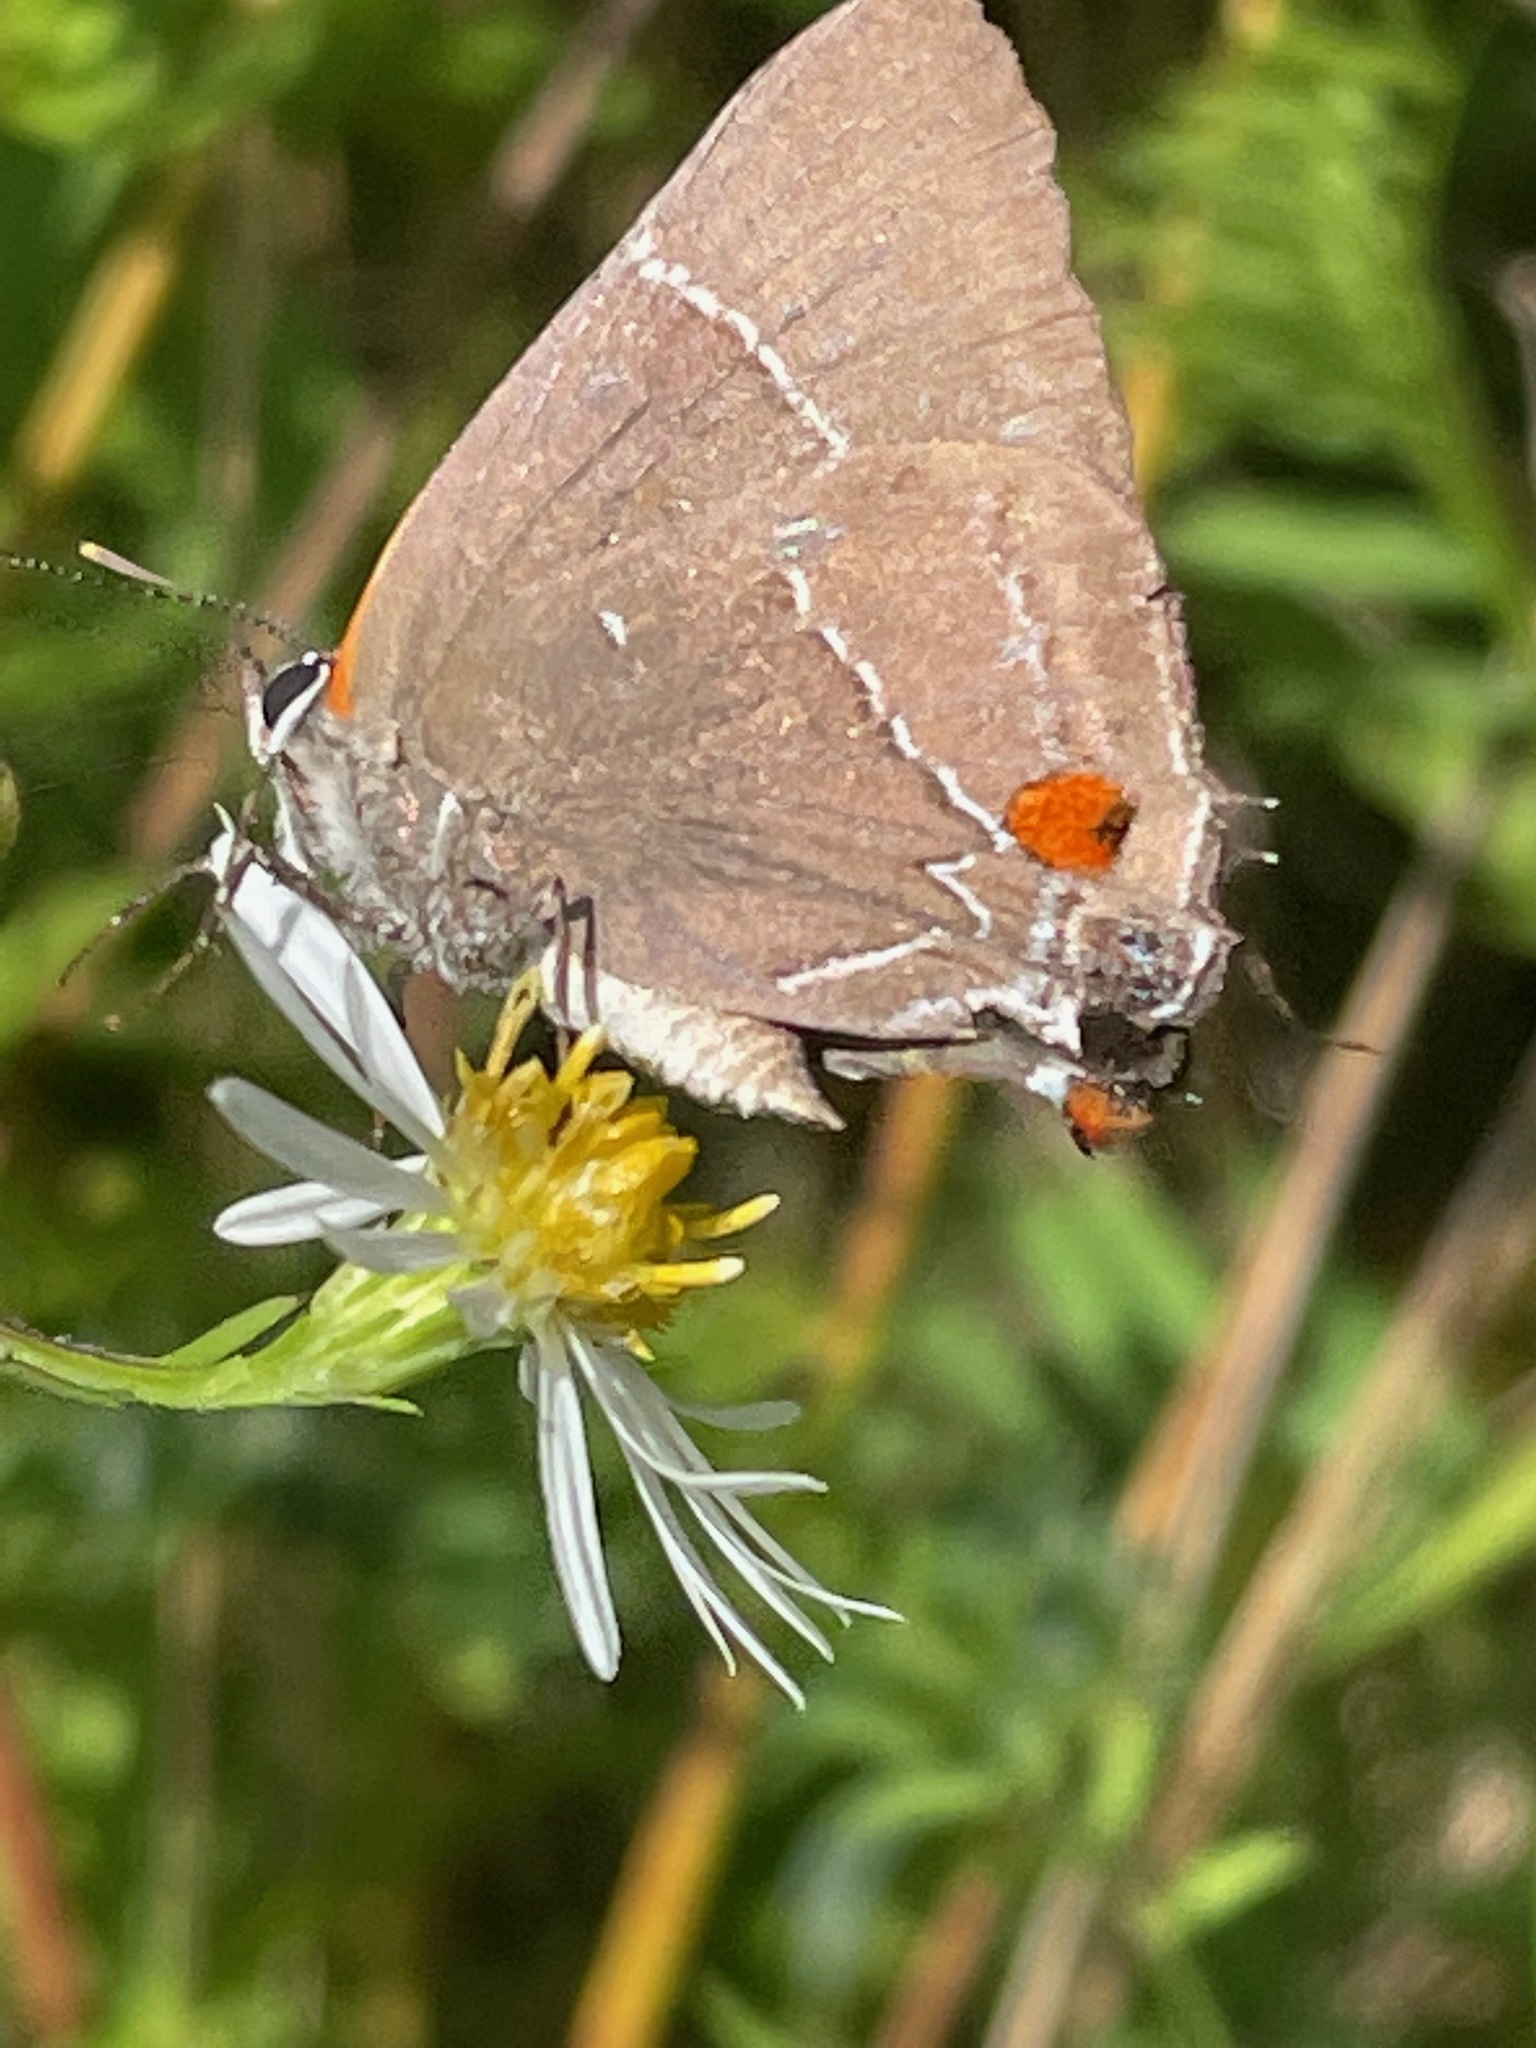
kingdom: Animalia
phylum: Arthropoda
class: Insecta
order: Lepidoptera
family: Lycaenidae
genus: Parrhasius
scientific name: Parrhasius m-album
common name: White m hairstreak
